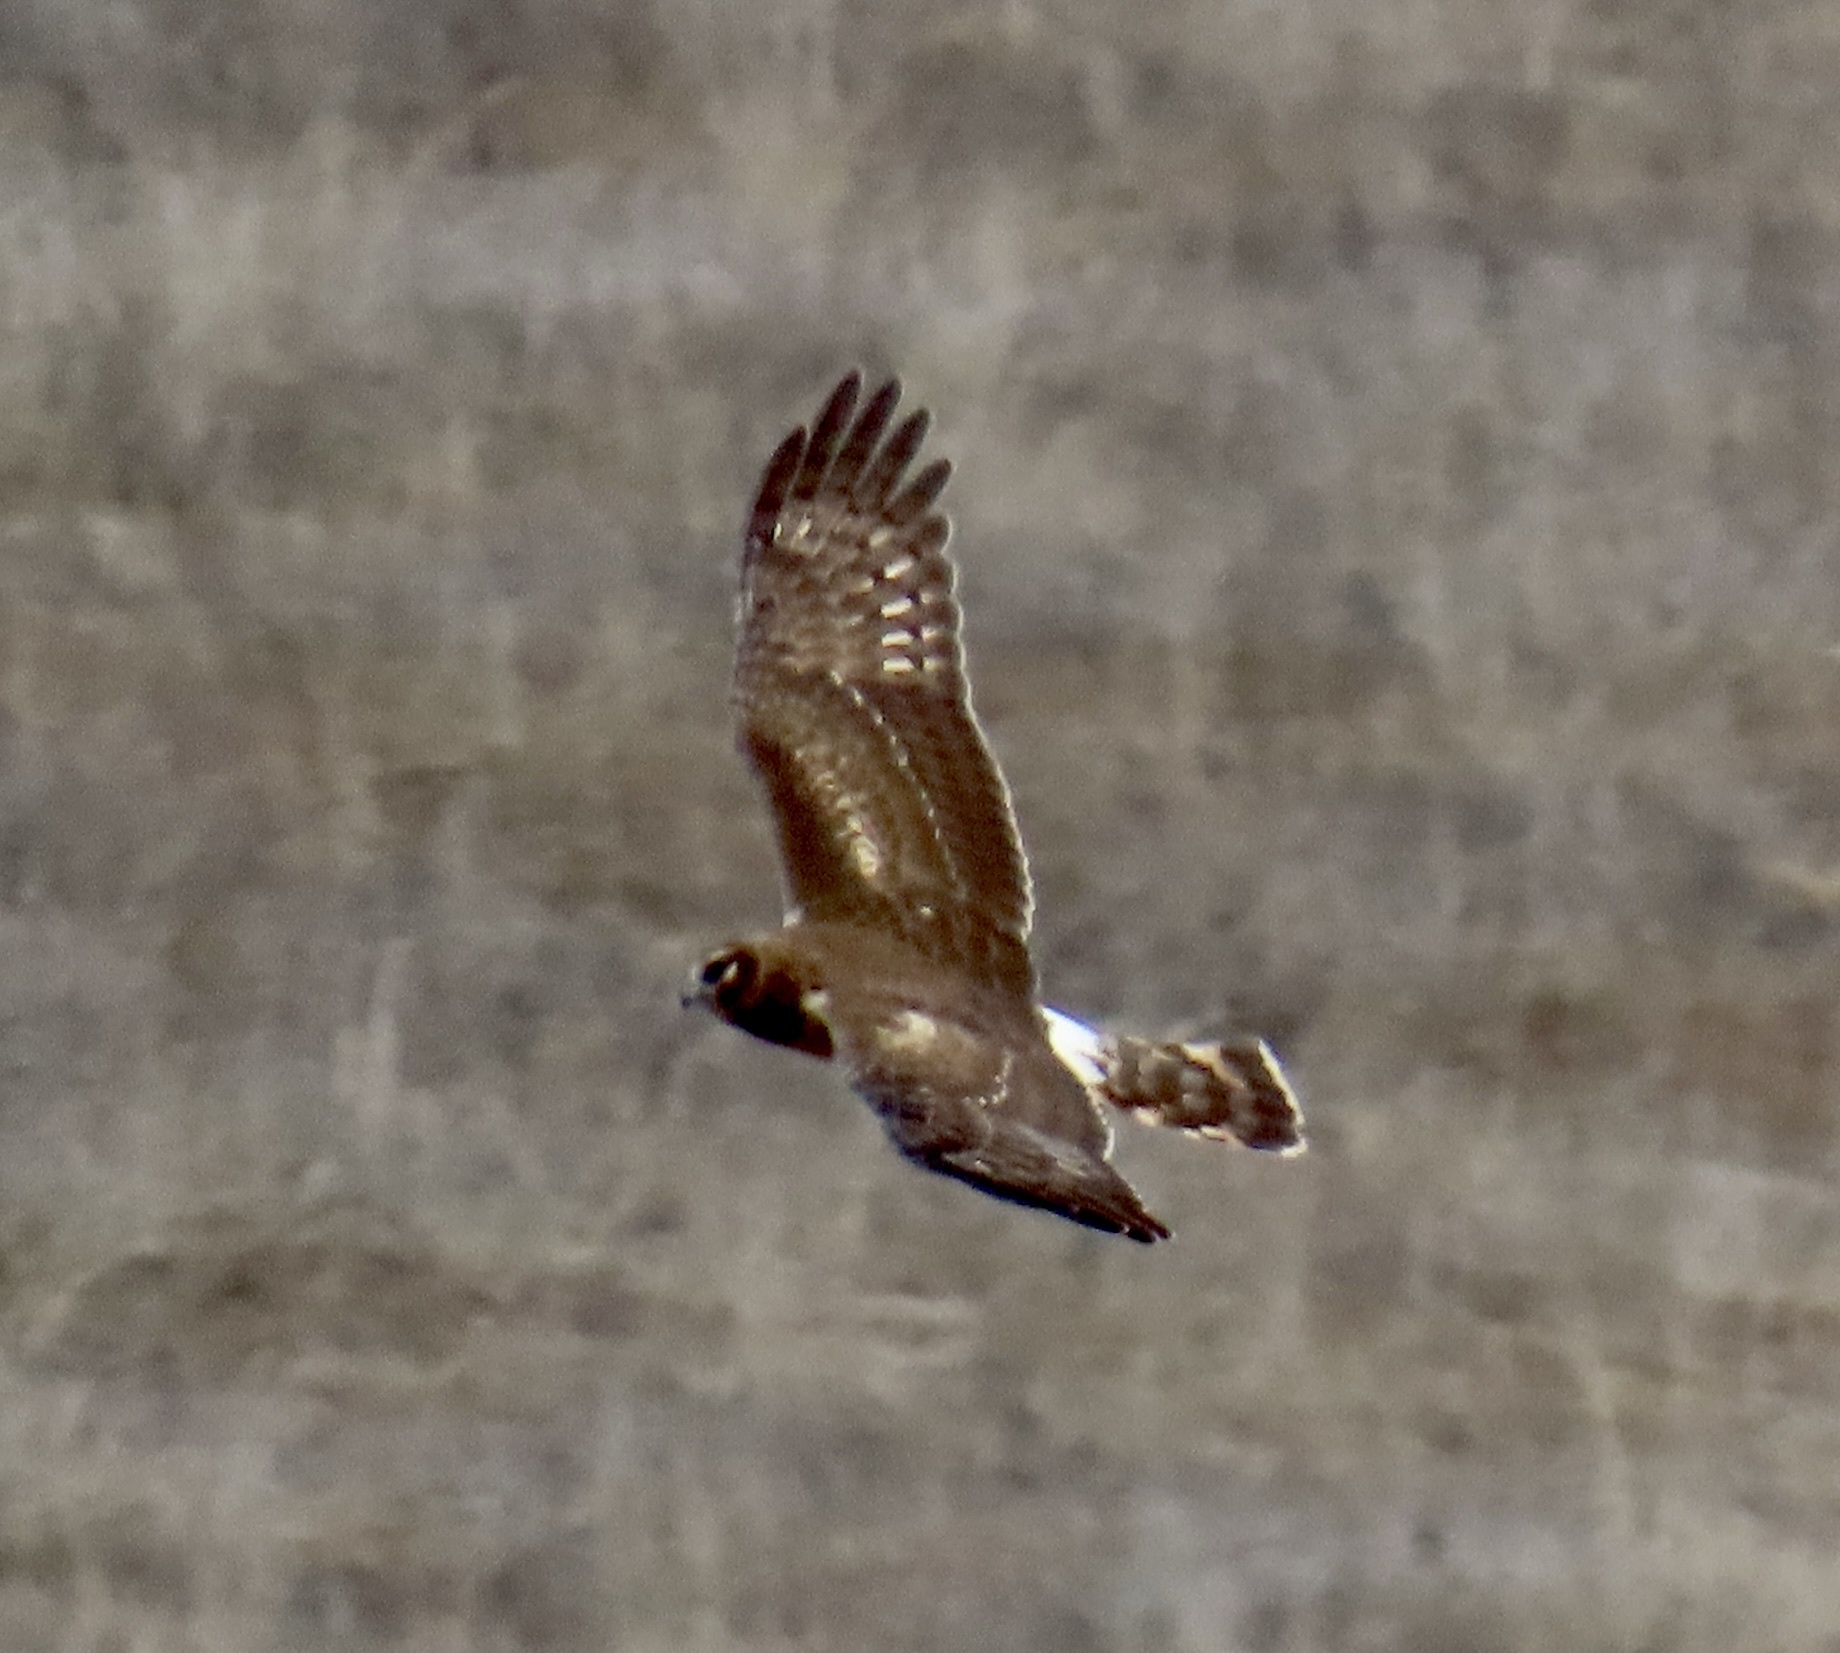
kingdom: Animalia
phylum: Chordata
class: Aves
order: Accipitriformes
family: Accipitridae
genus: Circus
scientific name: Circus cyaneus
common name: Hen harrier
